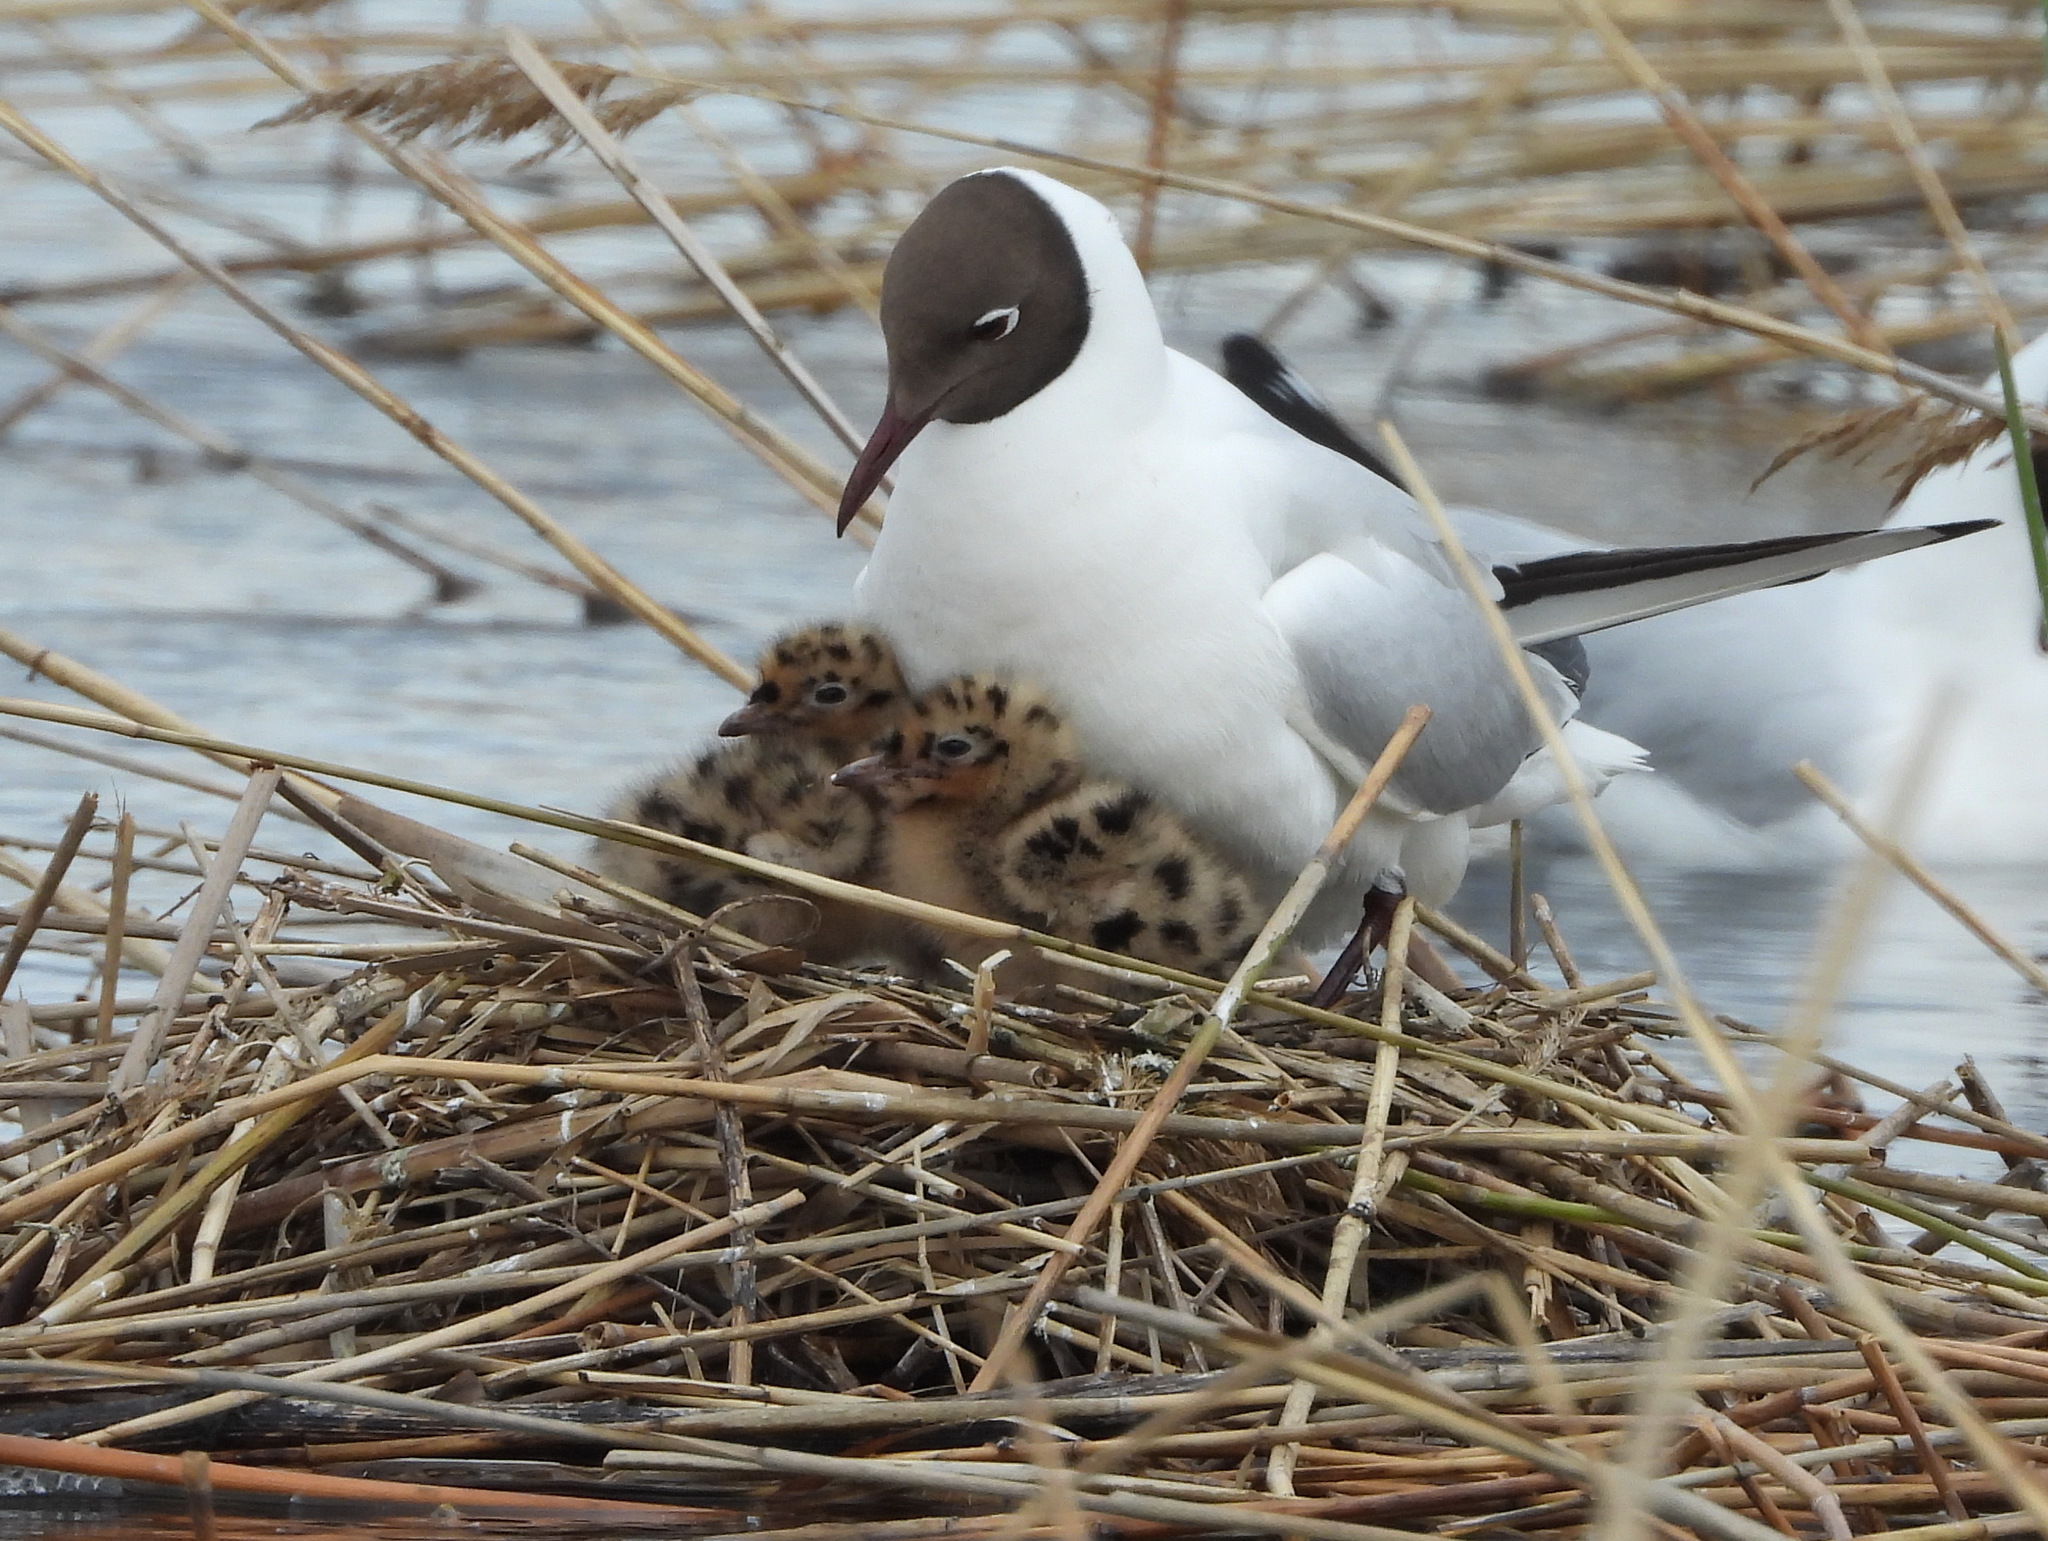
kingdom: Animalia
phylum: Chordata
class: Aves
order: Charadriiformes
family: Laridae
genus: Chroicocephalus
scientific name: Chroicocephalus ridibundus
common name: Black-headed gull
